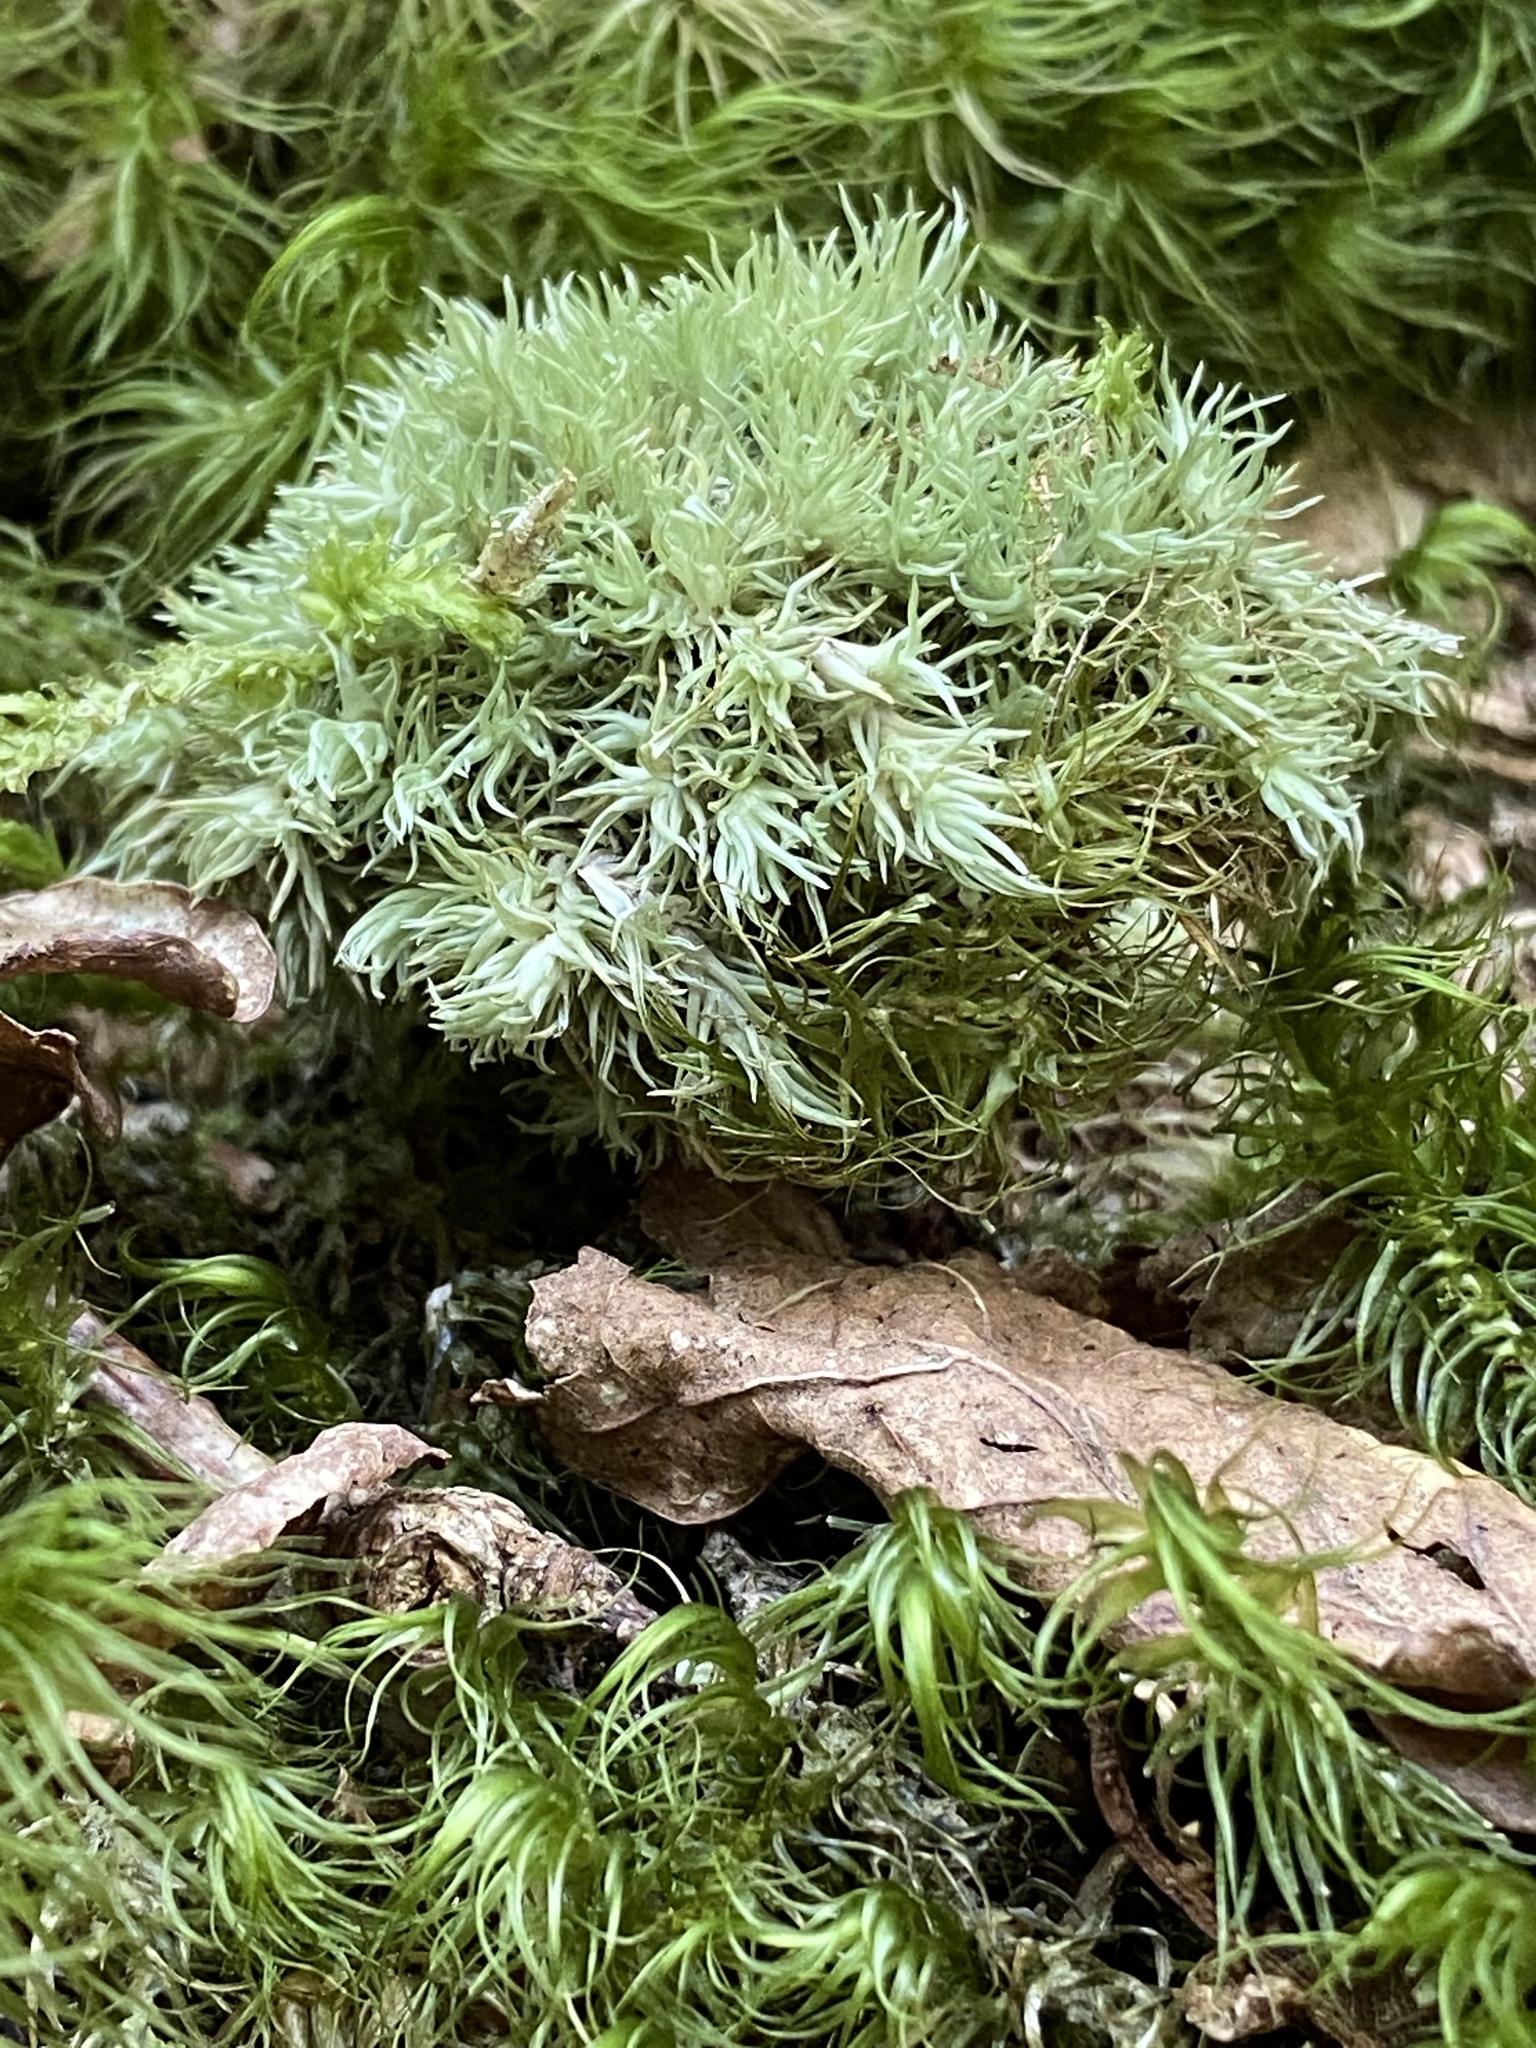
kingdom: Plantae
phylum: Bryophyta
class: Bryopsida
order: Dicranales
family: Leucobryaceae
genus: Leucobryum
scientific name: Leucobryum glaucum
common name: Large white-moss
